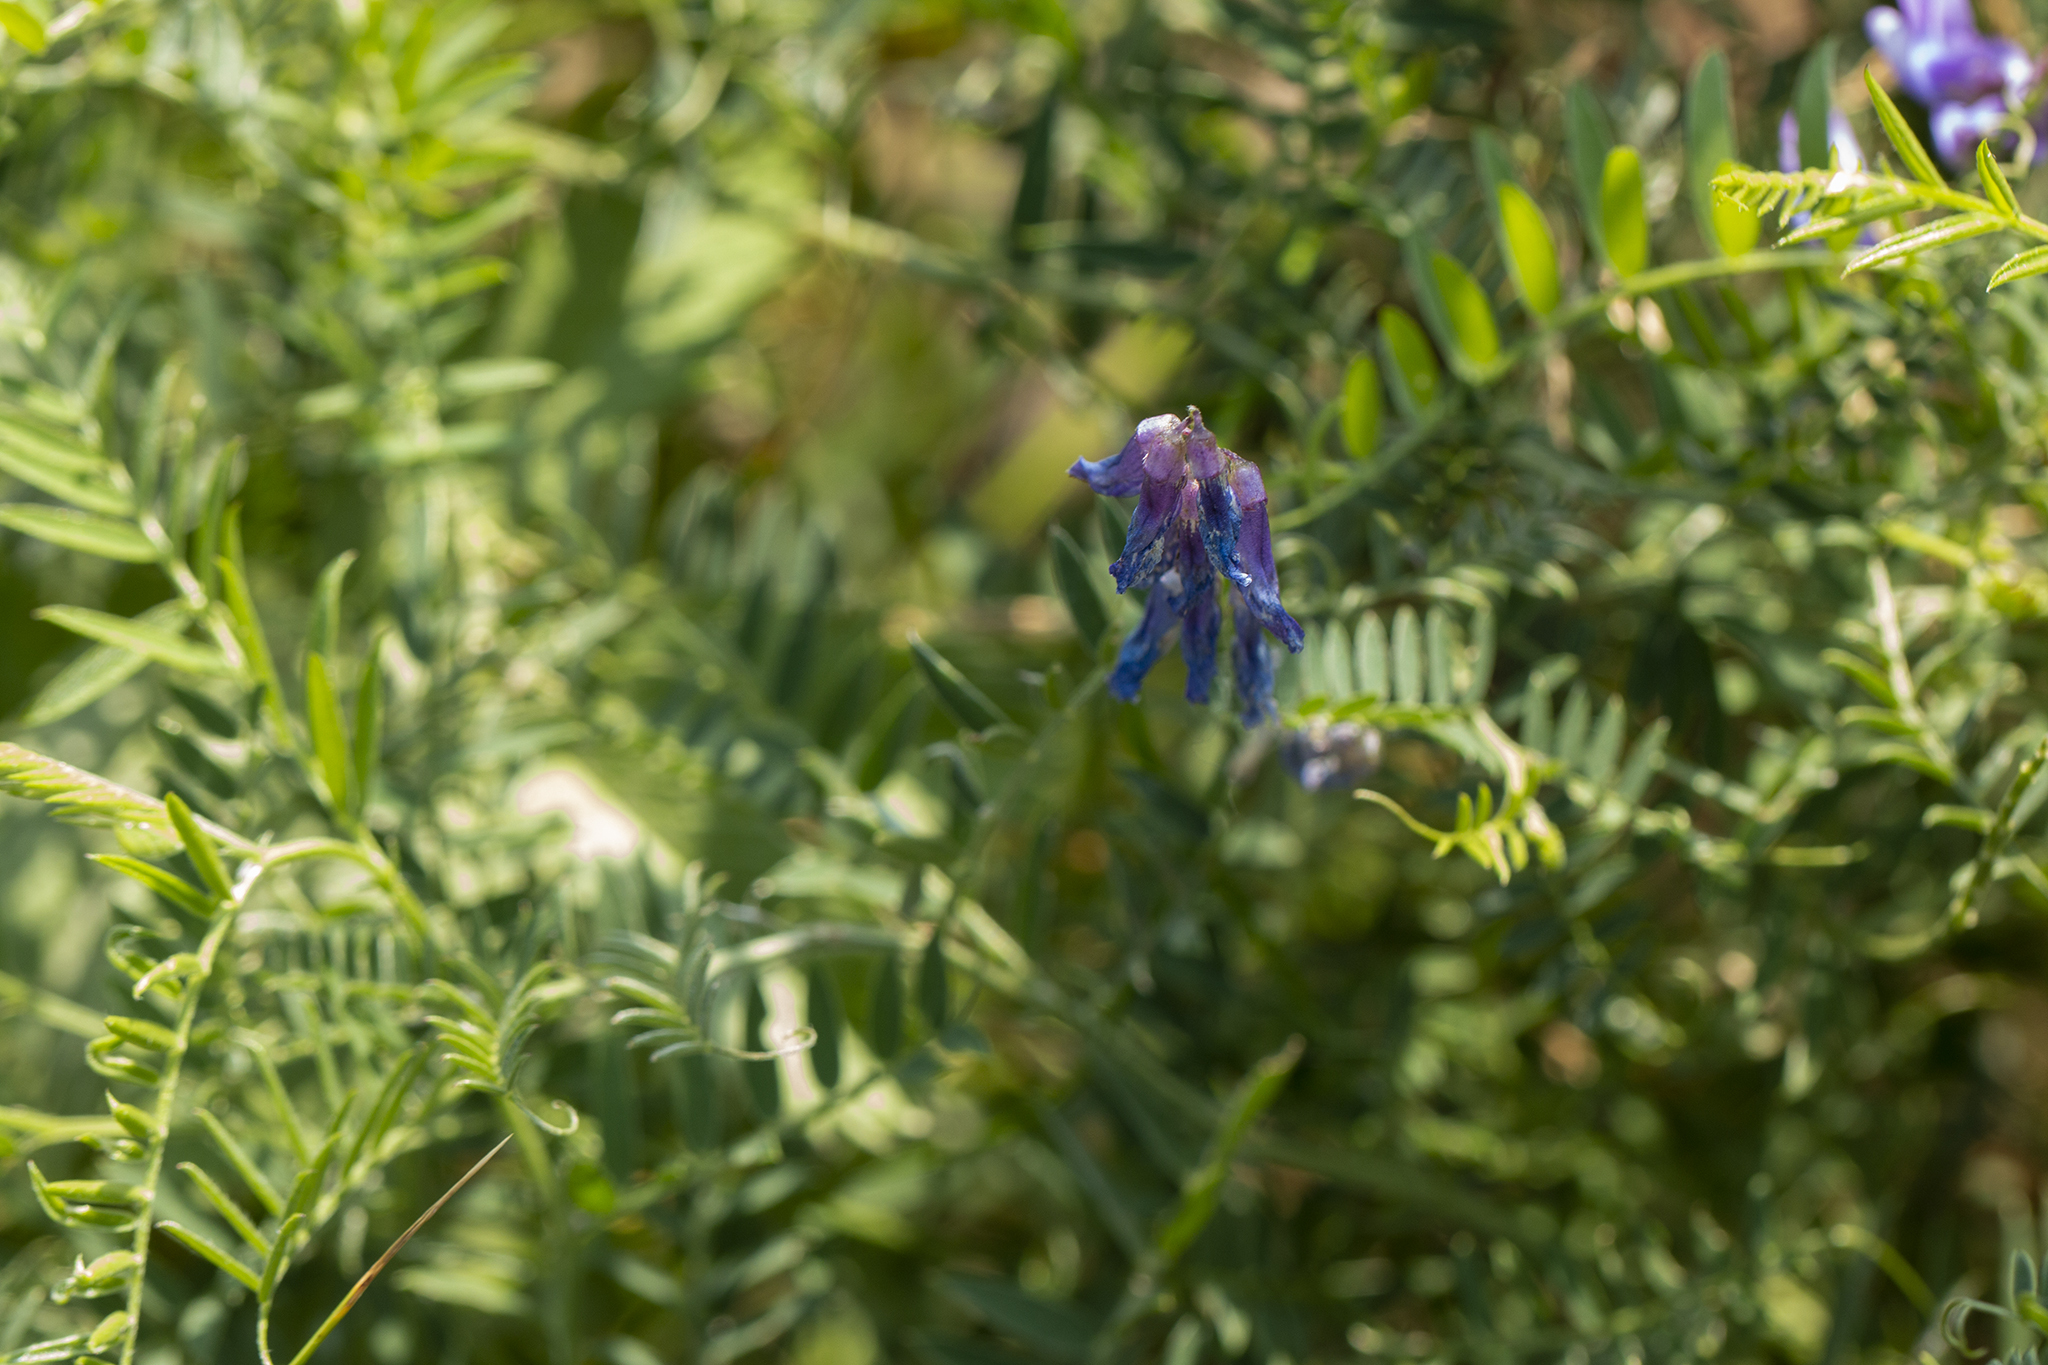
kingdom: Plantae
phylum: Tracheophyta
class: Magnoliopsida
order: Fabales
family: Fabaceae
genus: Vicia
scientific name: Vicia cracca
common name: Bird vetch
